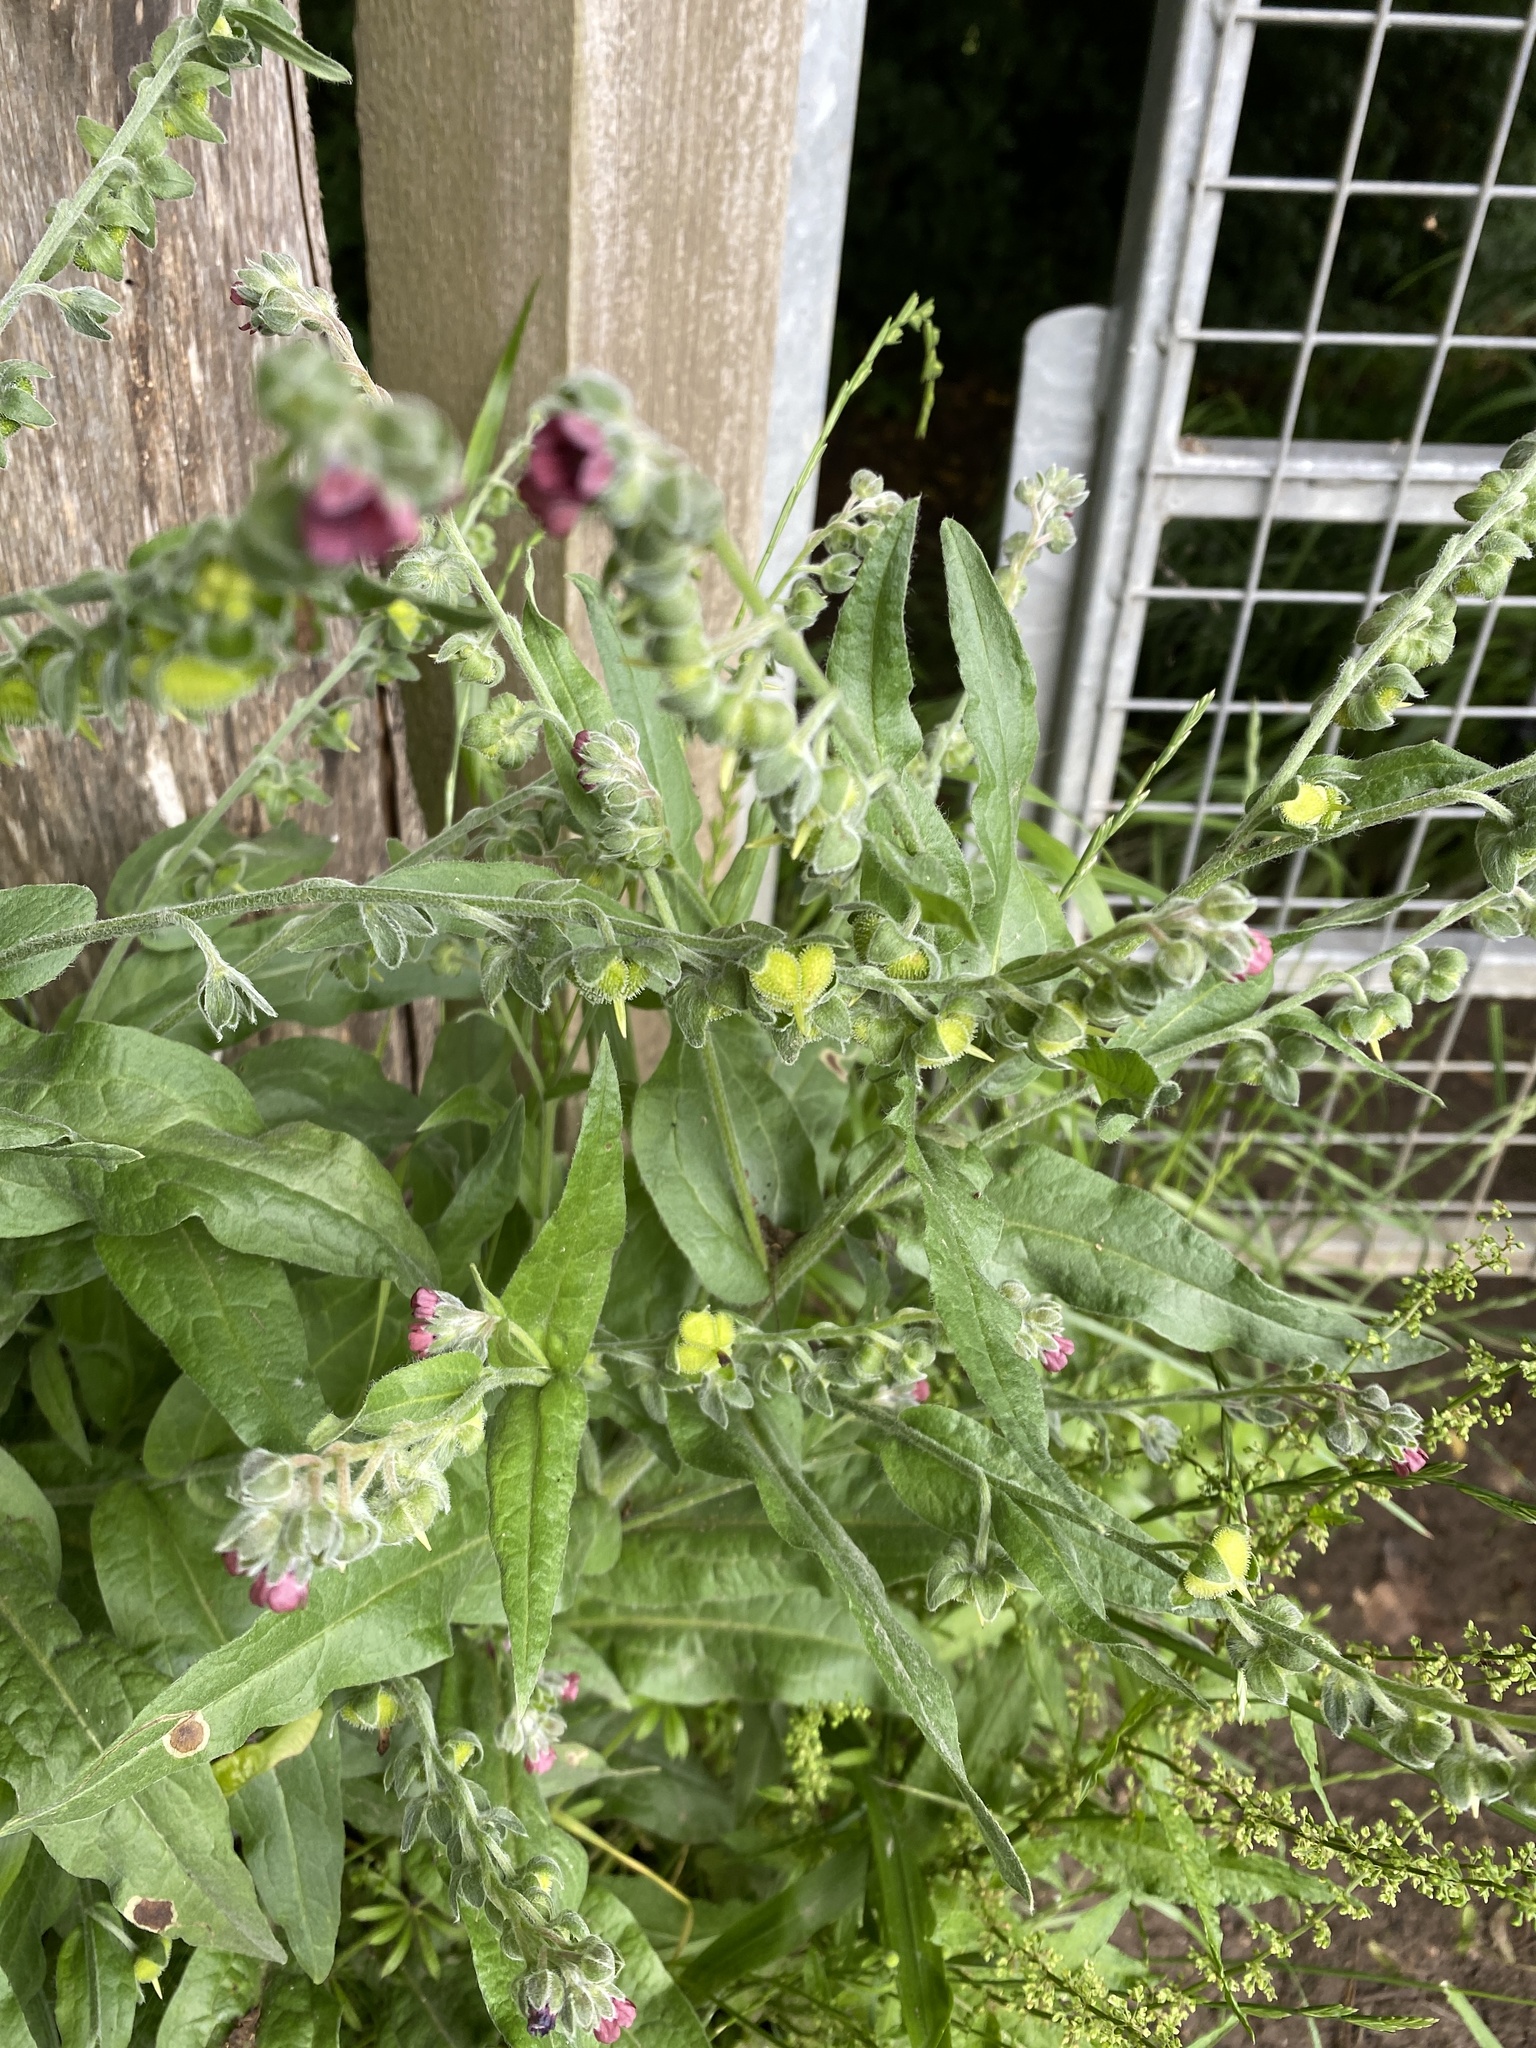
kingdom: Plantae
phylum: Tracheophyta
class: Magnoliopsida
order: Boraginales
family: Boraginaceae
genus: Cynoglossum
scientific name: Cynoglossum officinale
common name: Hound's-tongue
